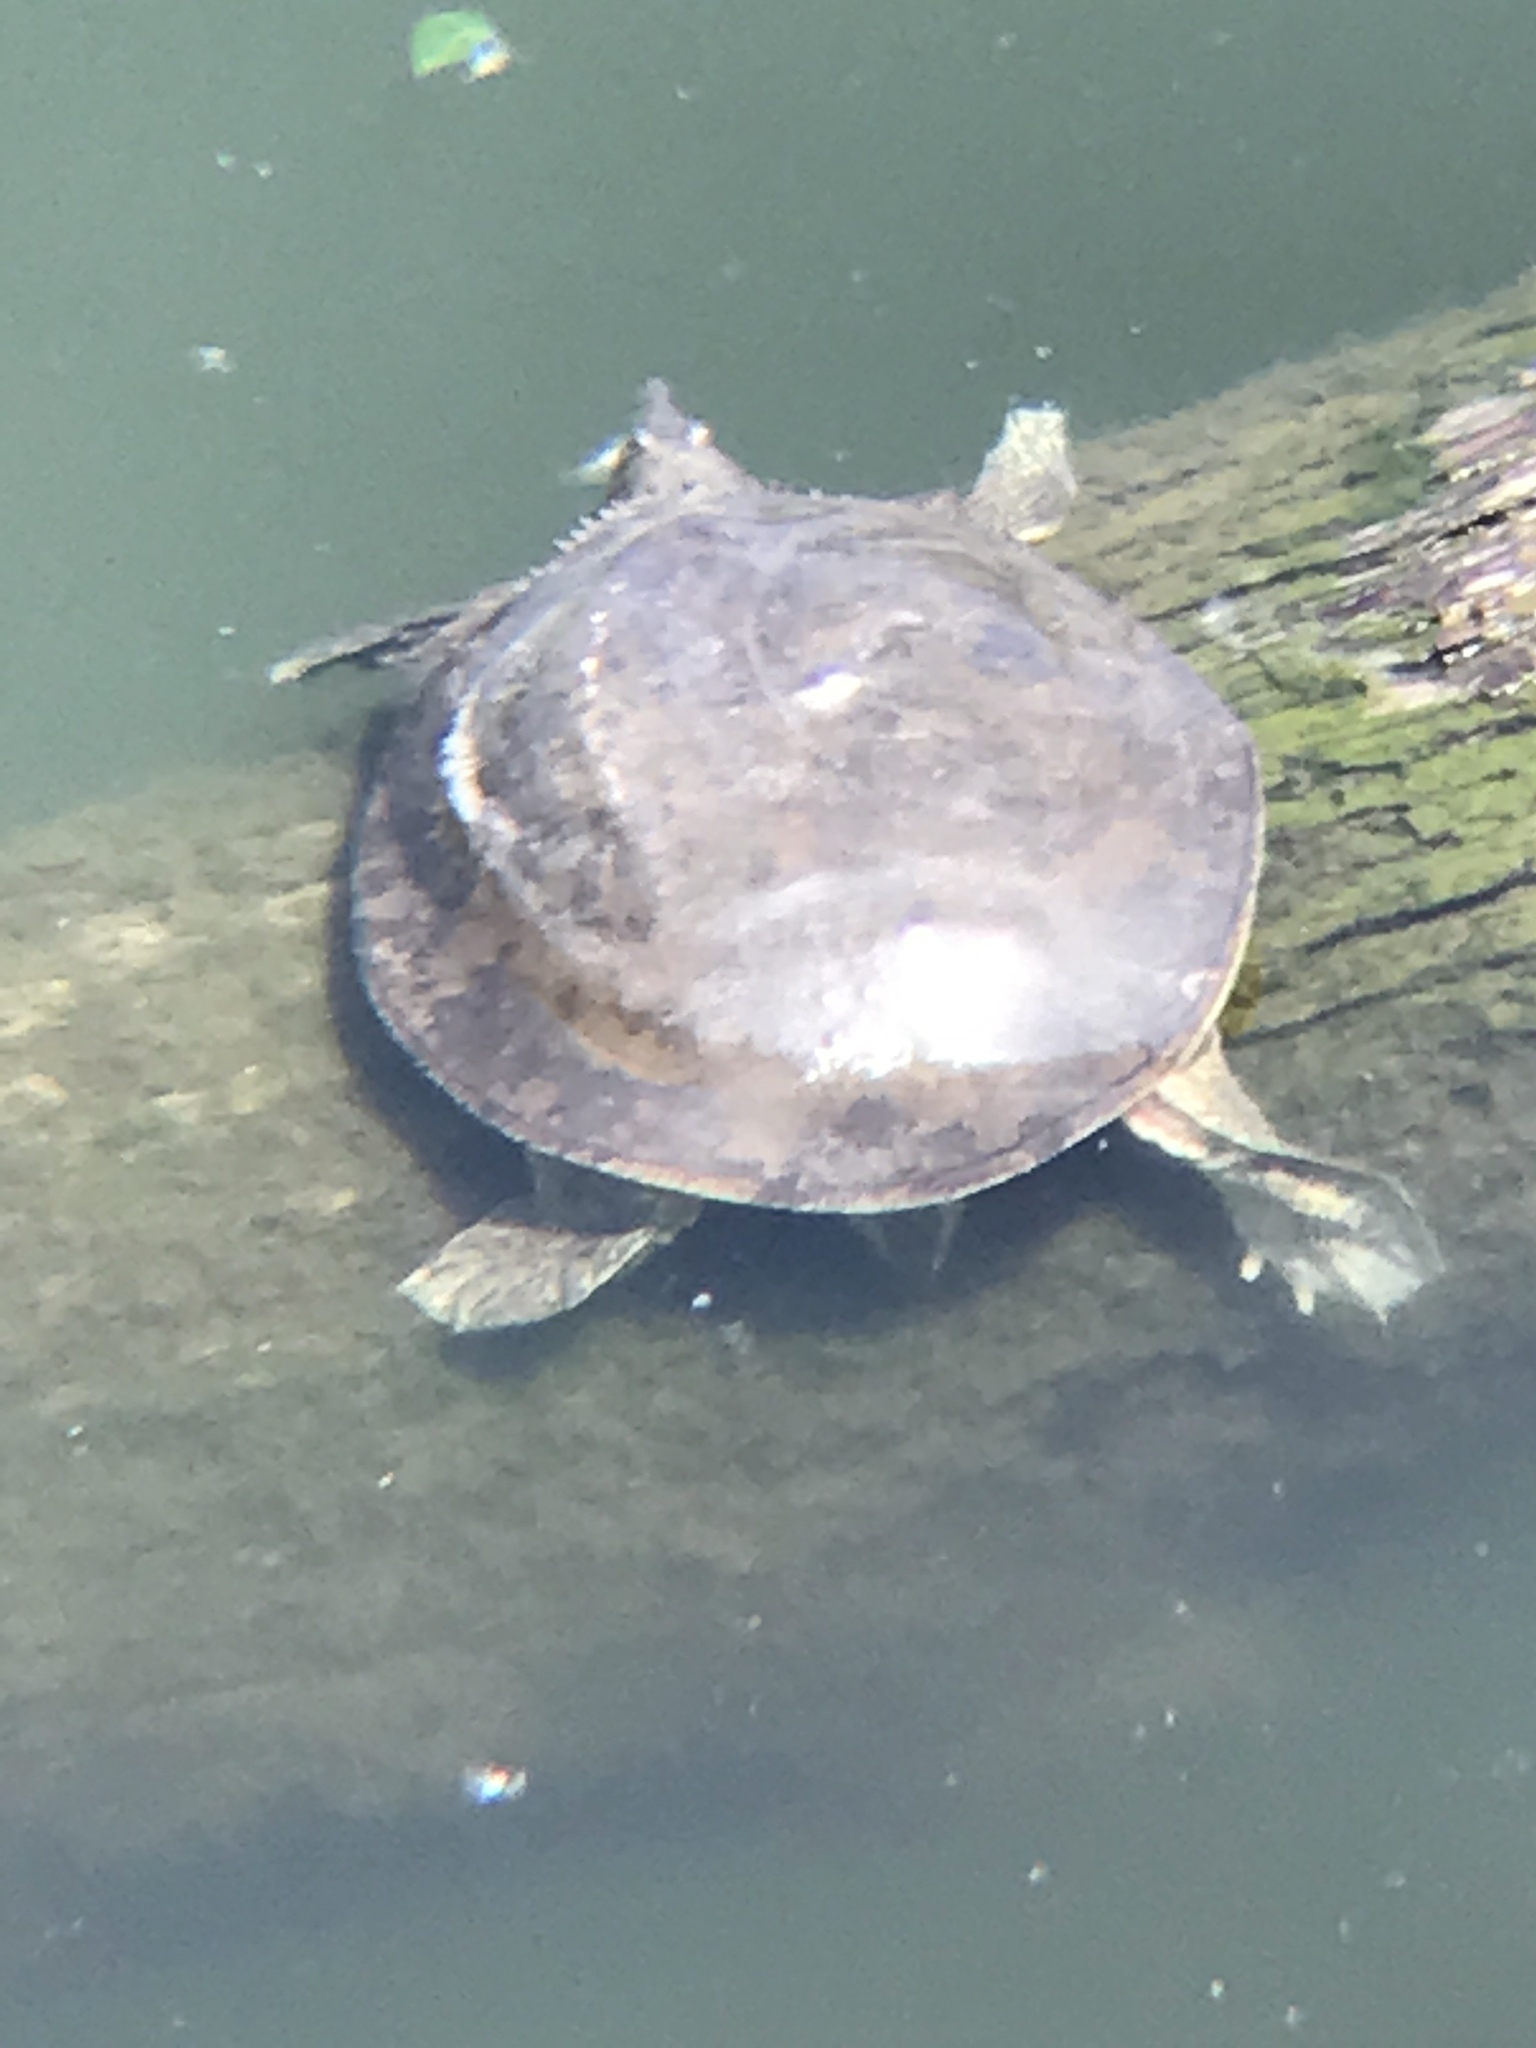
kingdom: Animalia
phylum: Chordata
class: Testudines
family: Trionychidae
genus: Apalone
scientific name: Apalone spinifera
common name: Spiny softshell turtle
